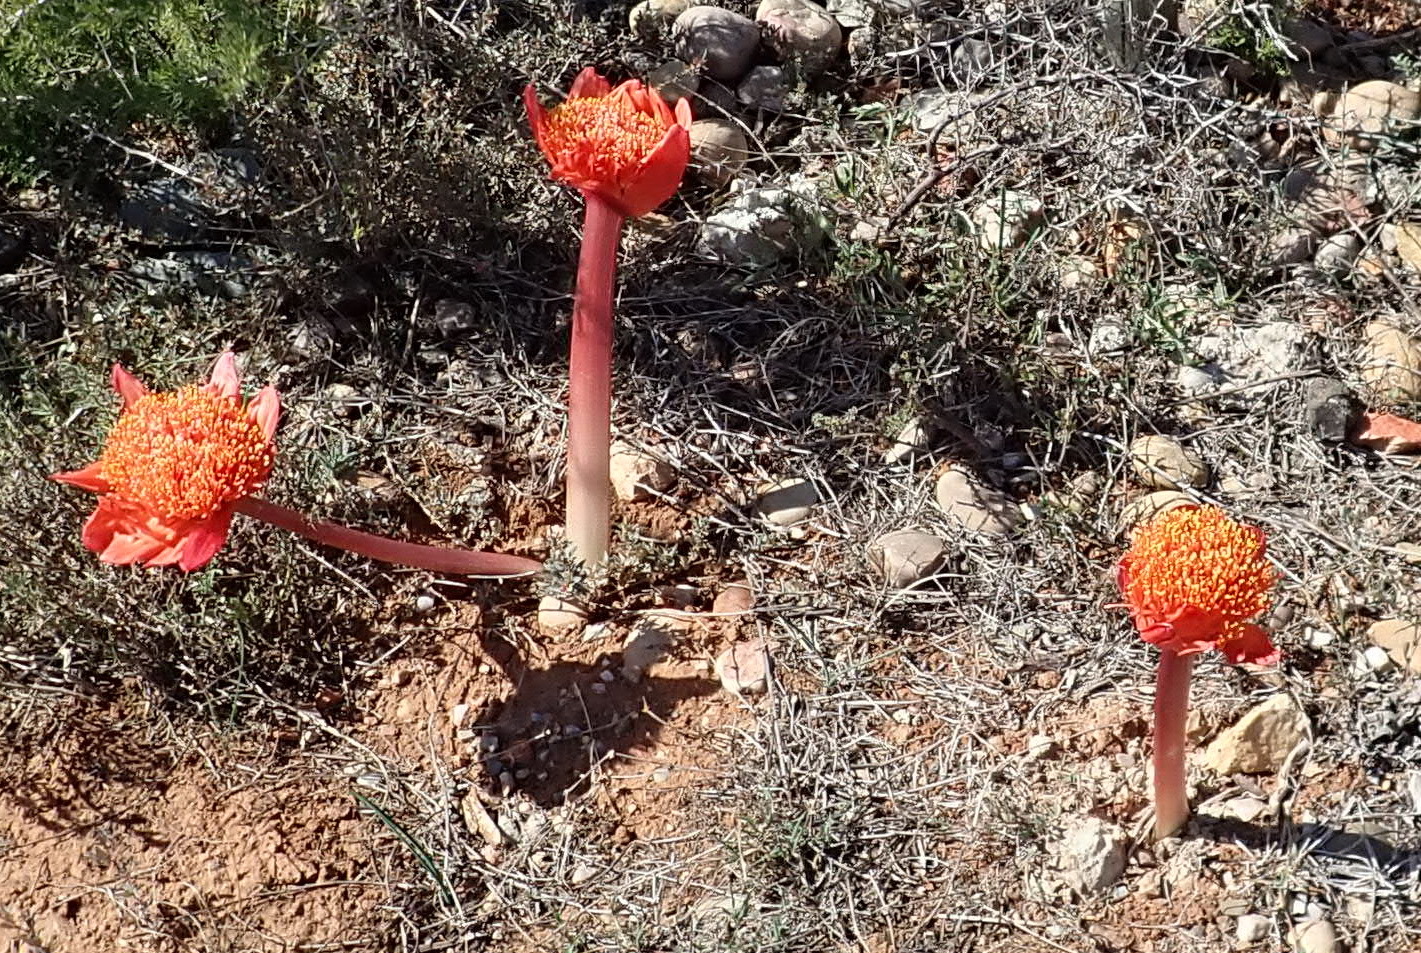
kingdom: Plantae
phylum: Tracheophyta
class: Liliopsida
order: Asparagales
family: Amaryllidaceae
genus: Haemanthus
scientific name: Haemanthus coccineus
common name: Cape-tulip
